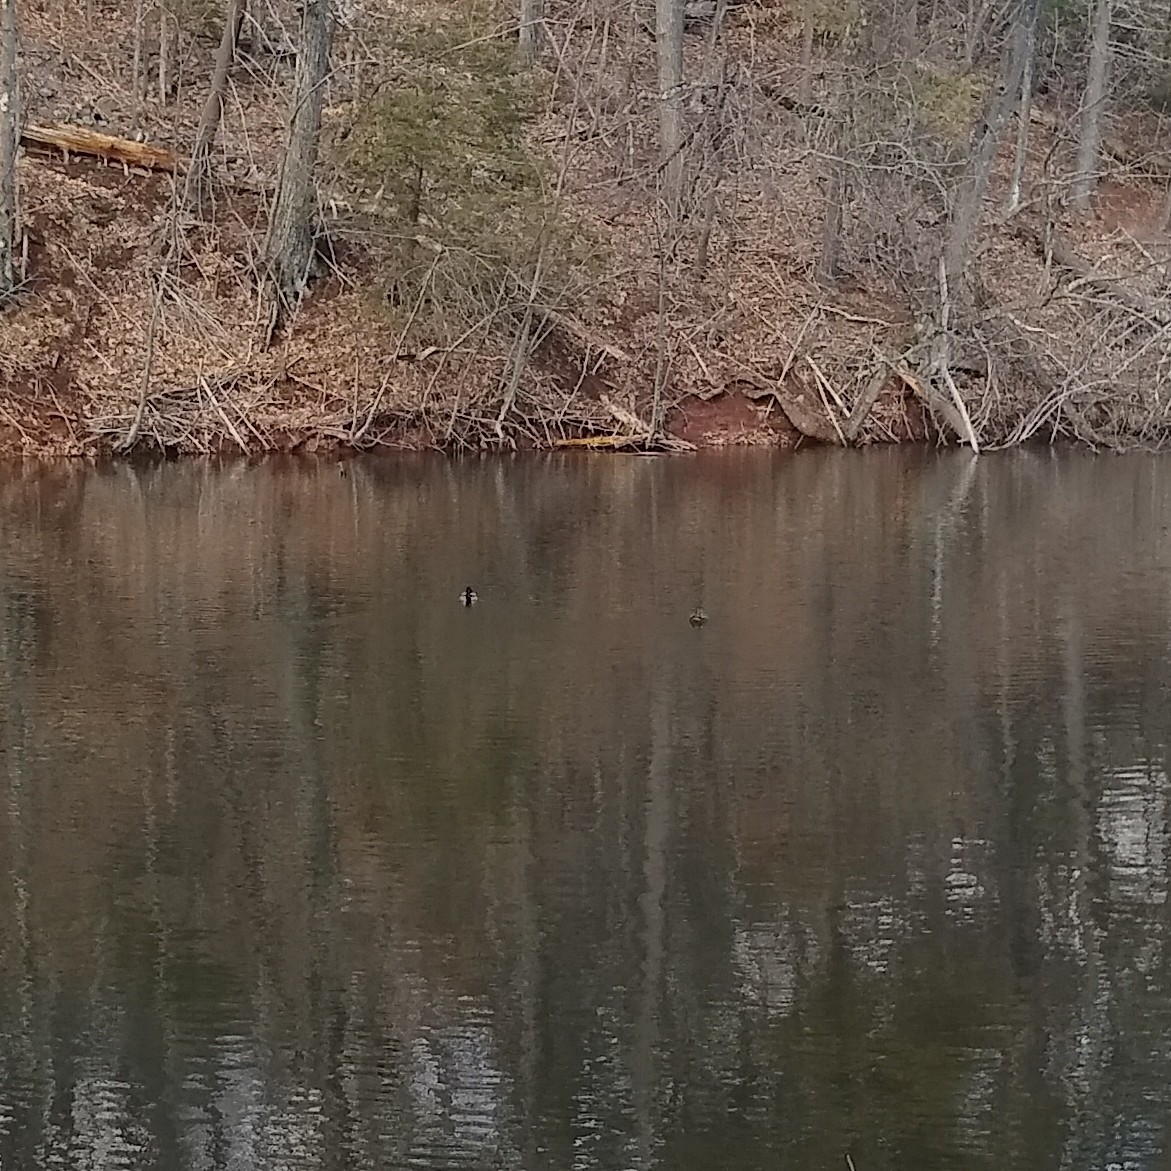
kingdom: Animalia
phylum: Chordata
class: Aves
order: Anseriformes
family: Anatidae
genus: Anas
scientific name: Anas platyrhynchos
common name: Mallard
